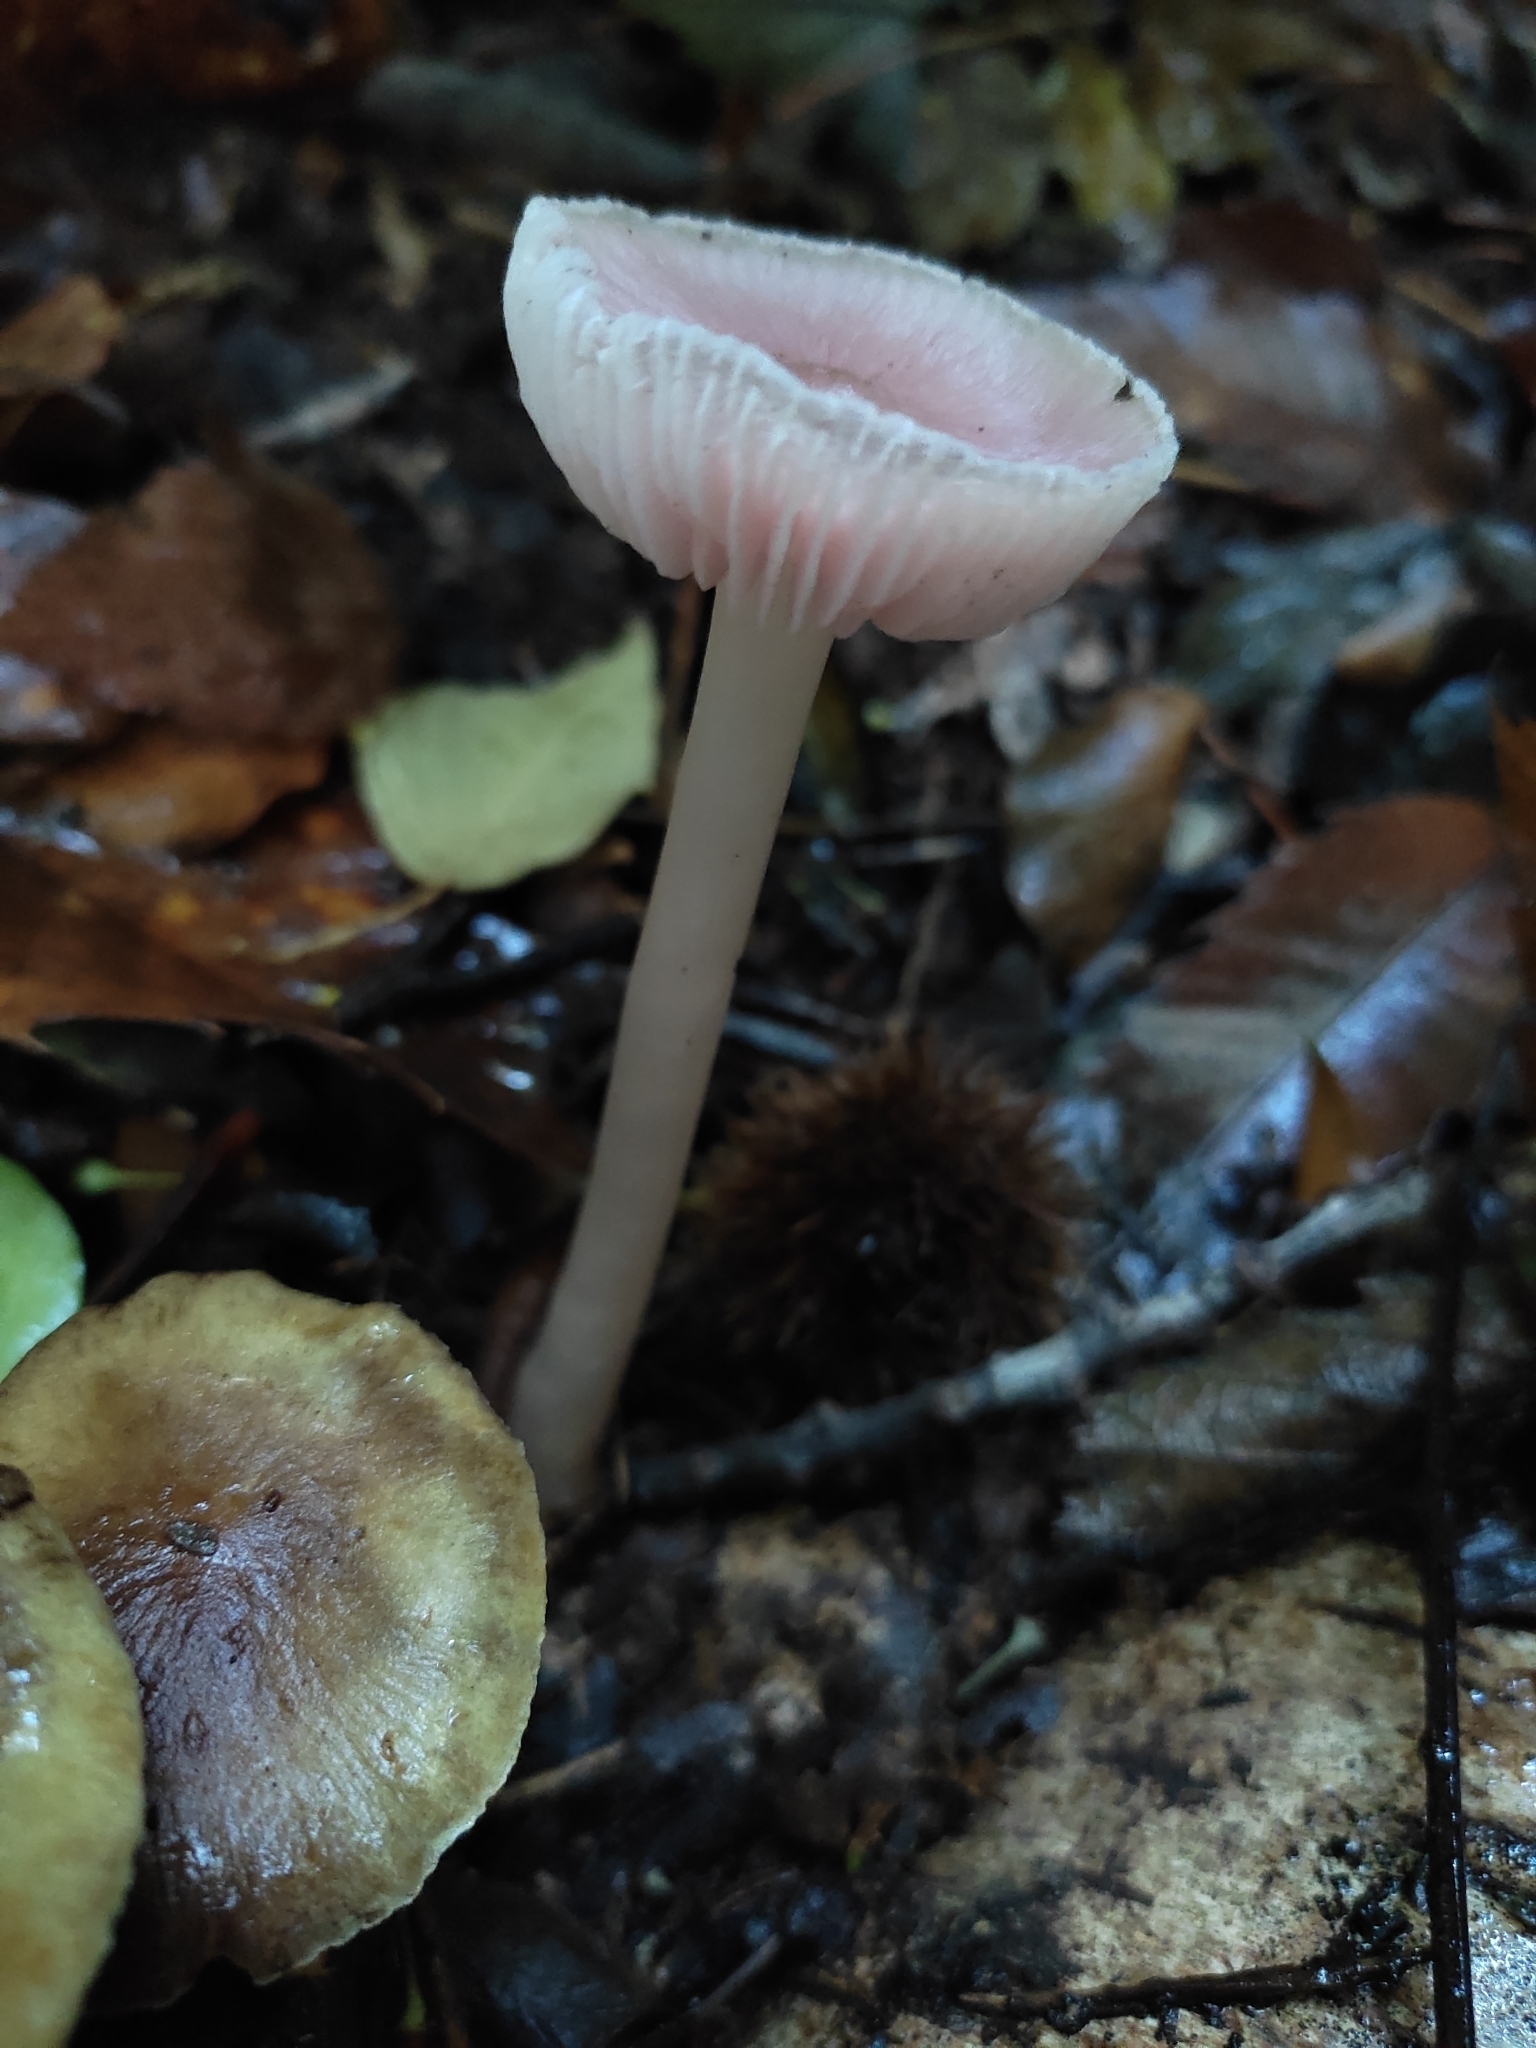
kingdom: Fungi
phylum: Basidiomycota
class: Agaricomycetes
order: Agaricales
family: Mycenaceae
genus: Mycena
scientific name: Mycena rosea
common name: Rosy bonnet
